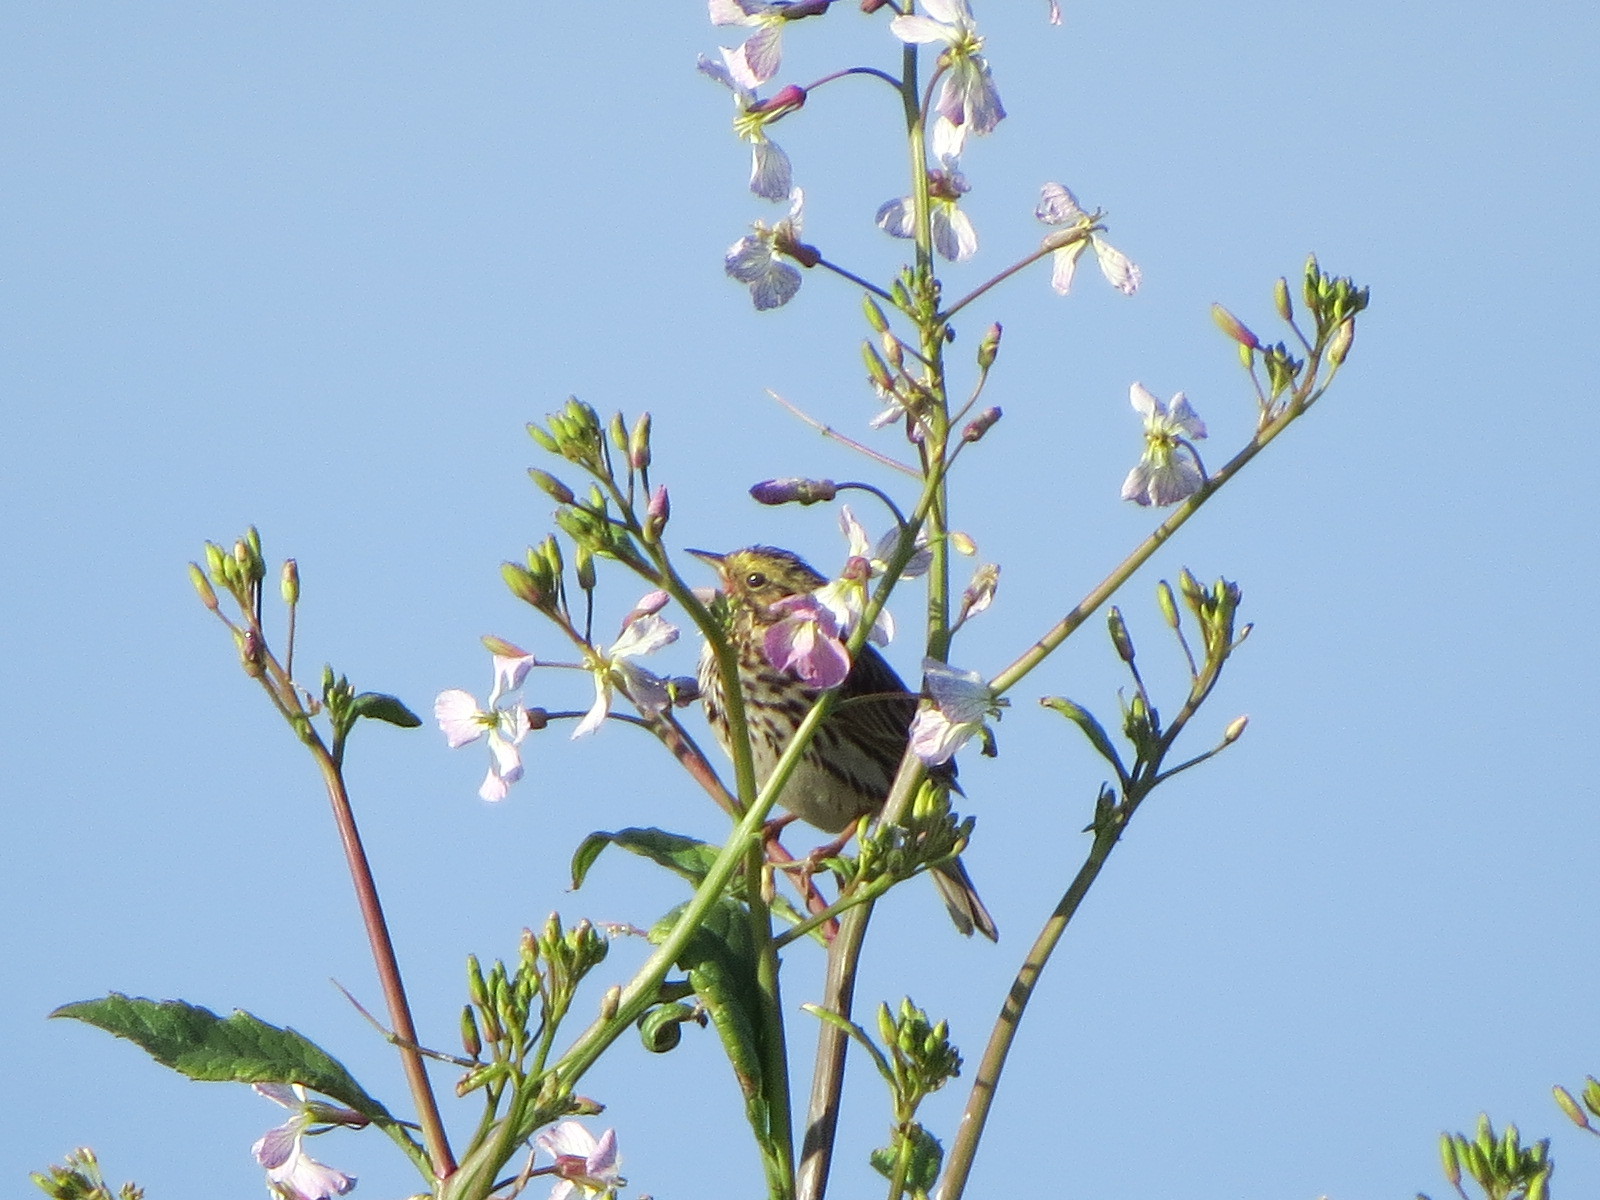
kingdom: Animalia
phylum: Chordata
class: Aves
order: Passeriformes
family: Passerellidae
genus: Passerculus
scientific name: Passerculus sandwichensis
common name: Savannah sparrow
